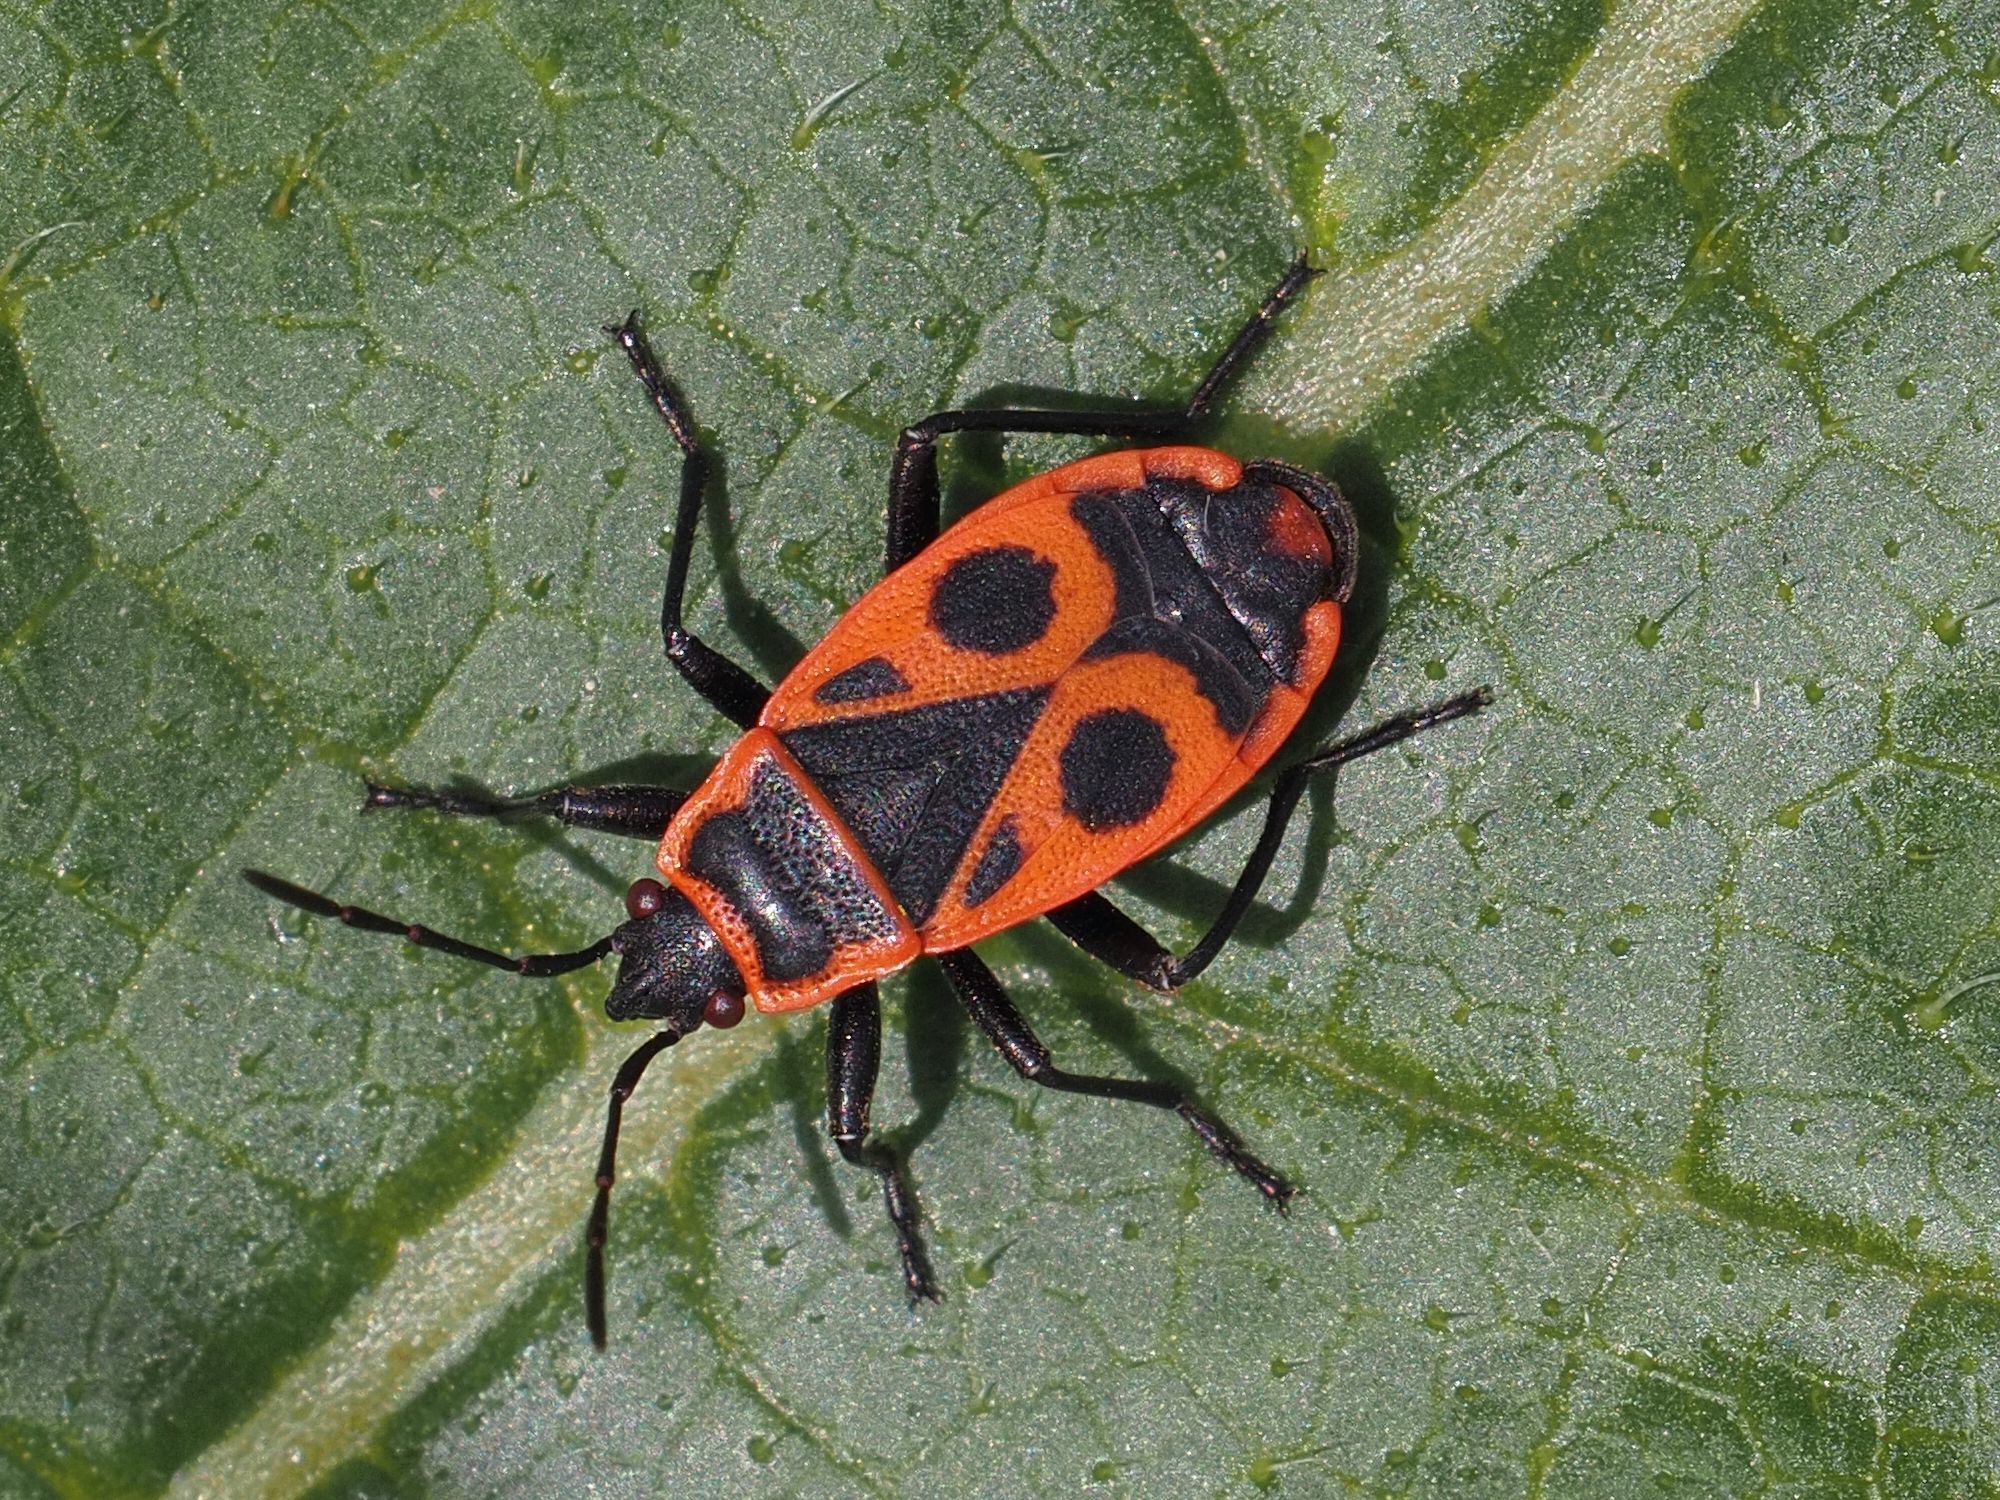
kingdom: Animalia
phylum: Arthropoda
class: Insecta
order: Hemiptera
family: Pyrrhocoridae
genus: Pyrrhocoris
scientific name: Pyrrhocoris apterus
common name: Firebug
